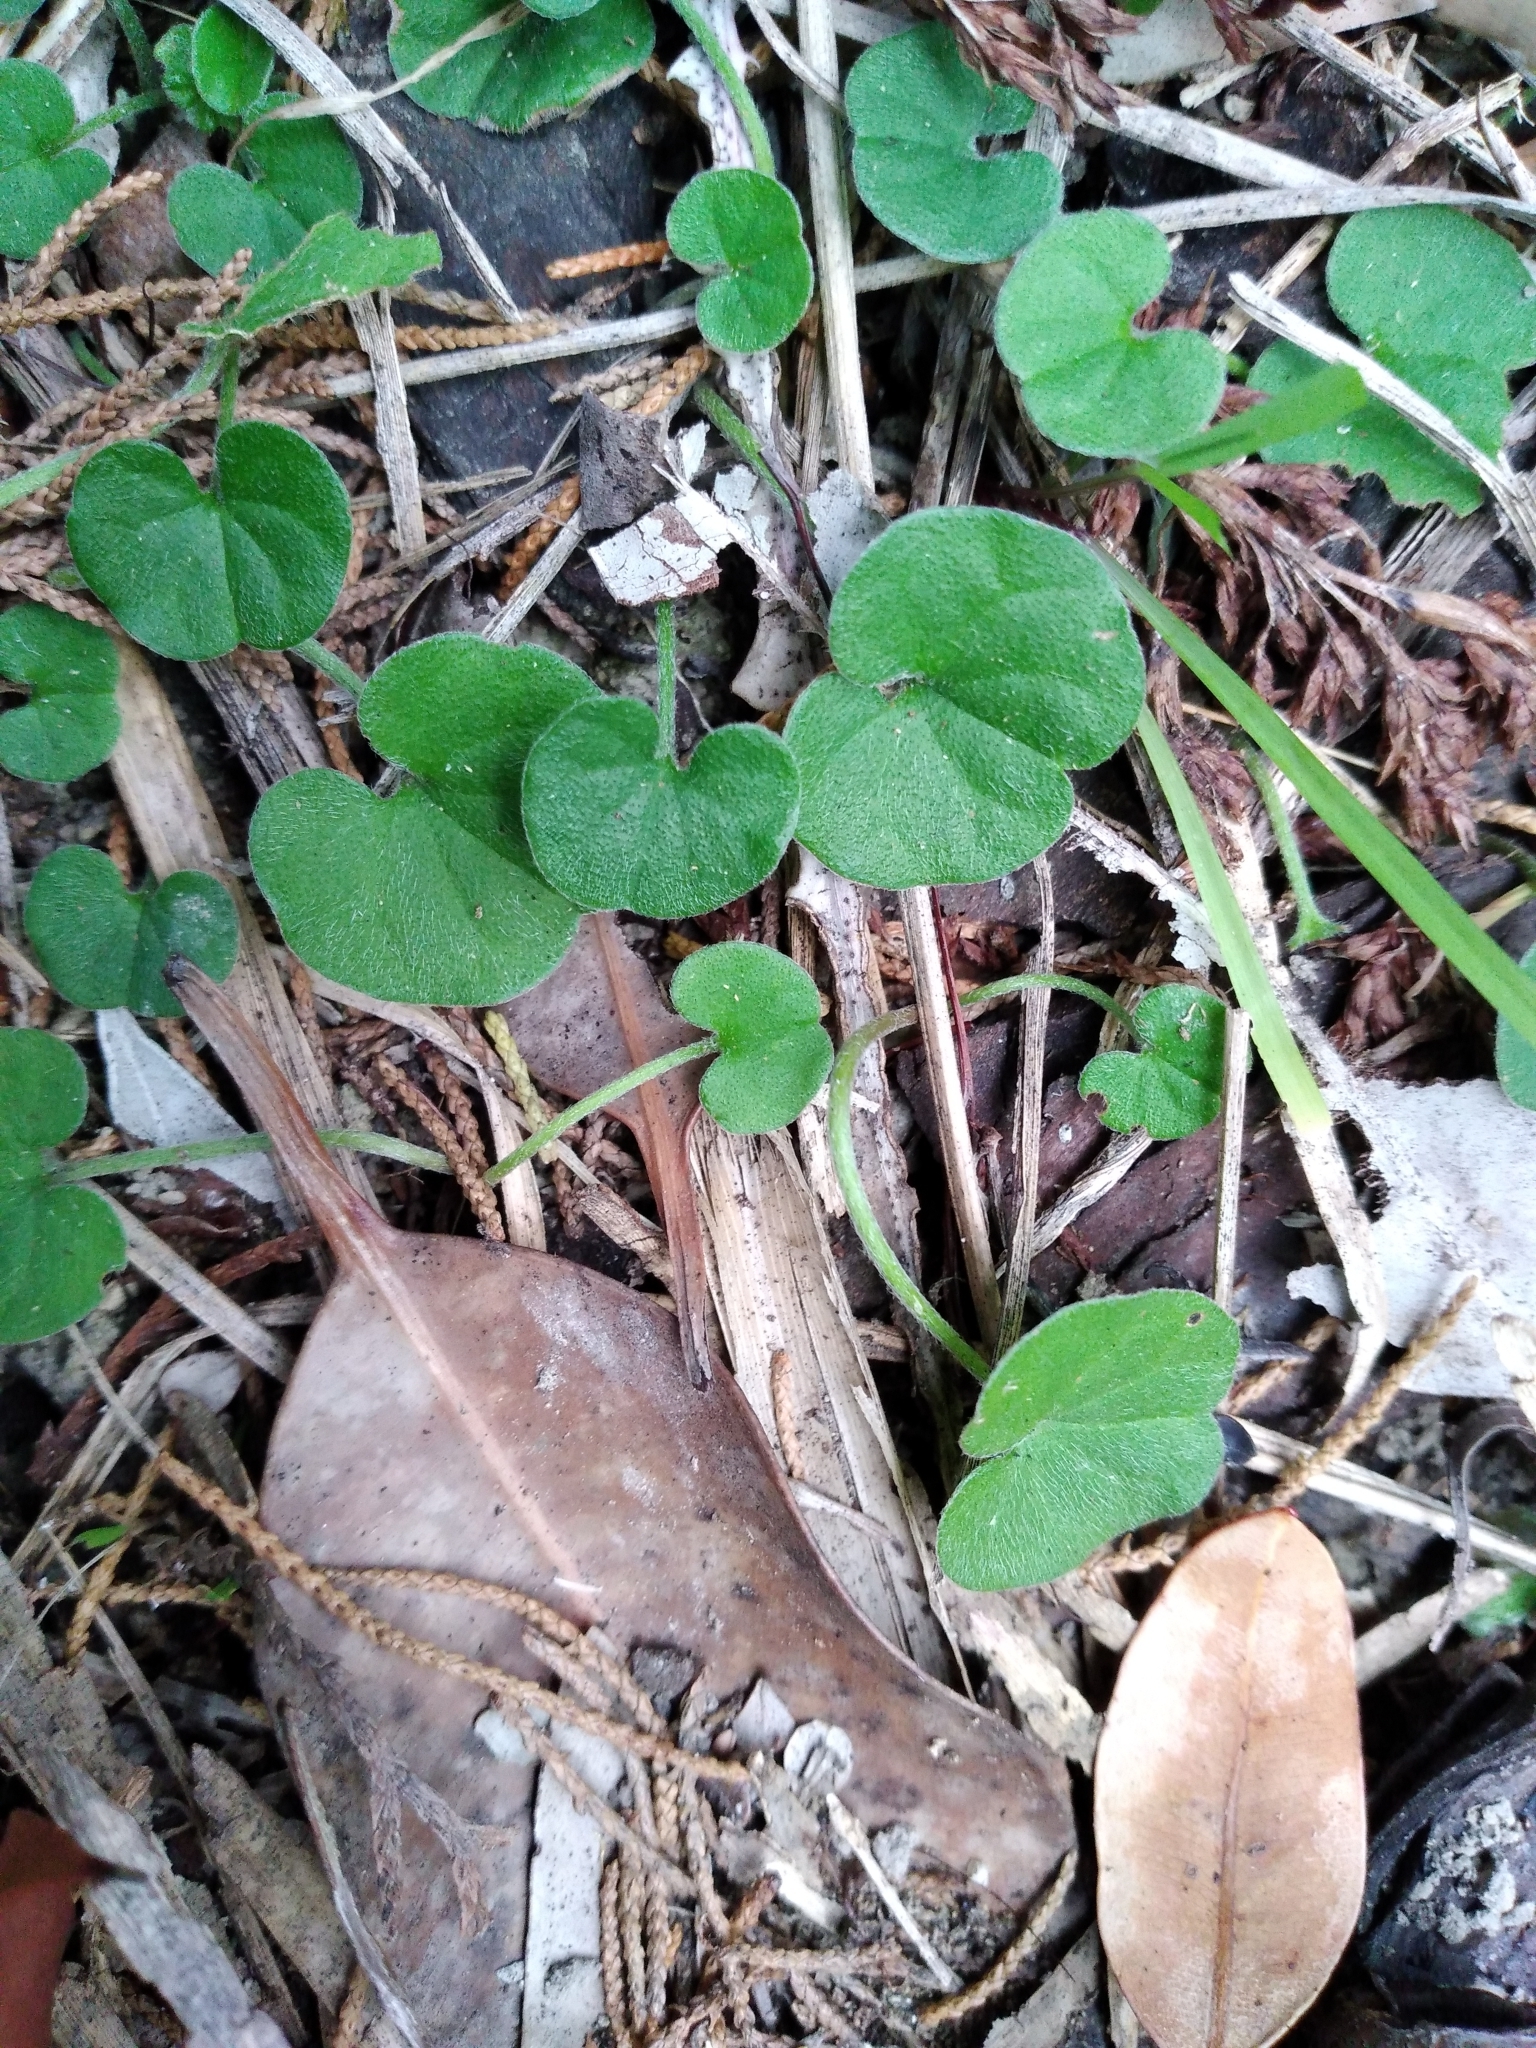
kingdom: Plantae
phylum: Tracheophyta
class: Magnoliopsida
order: Solanales
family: Convolvulaceae
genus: Dichondra
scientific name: Dichondra repens
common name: Kidneyweed
